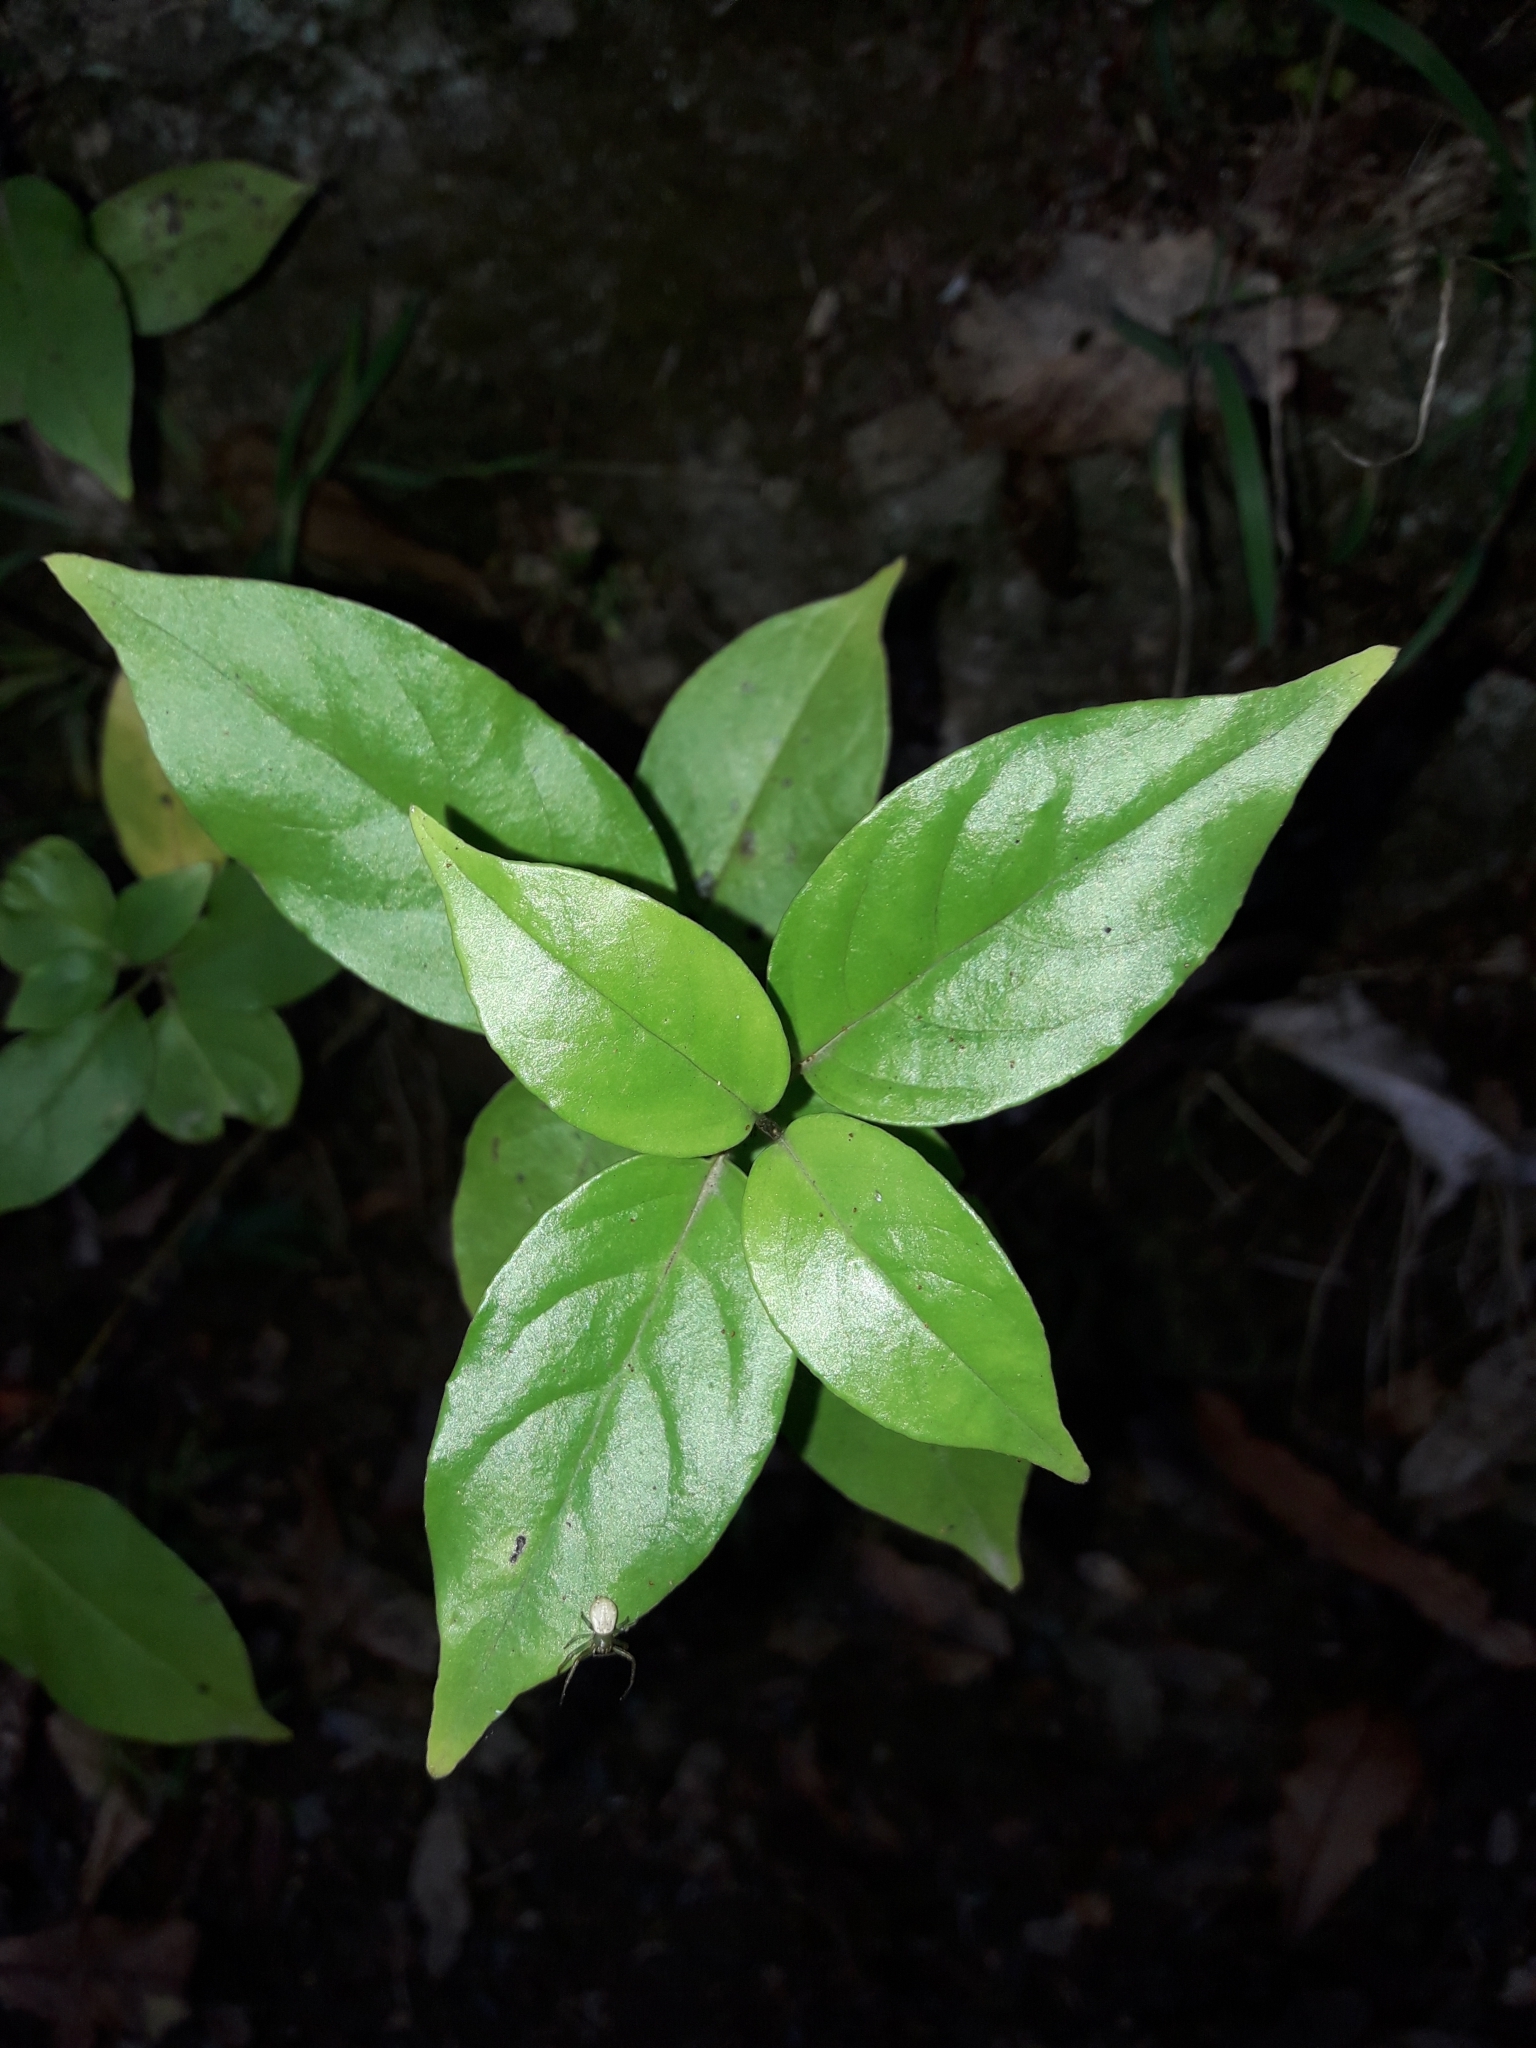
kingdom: Plantae
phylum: Tracheophyta
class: Magnoliopsida
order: Gentianales
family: Loganiaceae
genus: Geniostoma
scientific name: Geniostoma ligustrifolium
